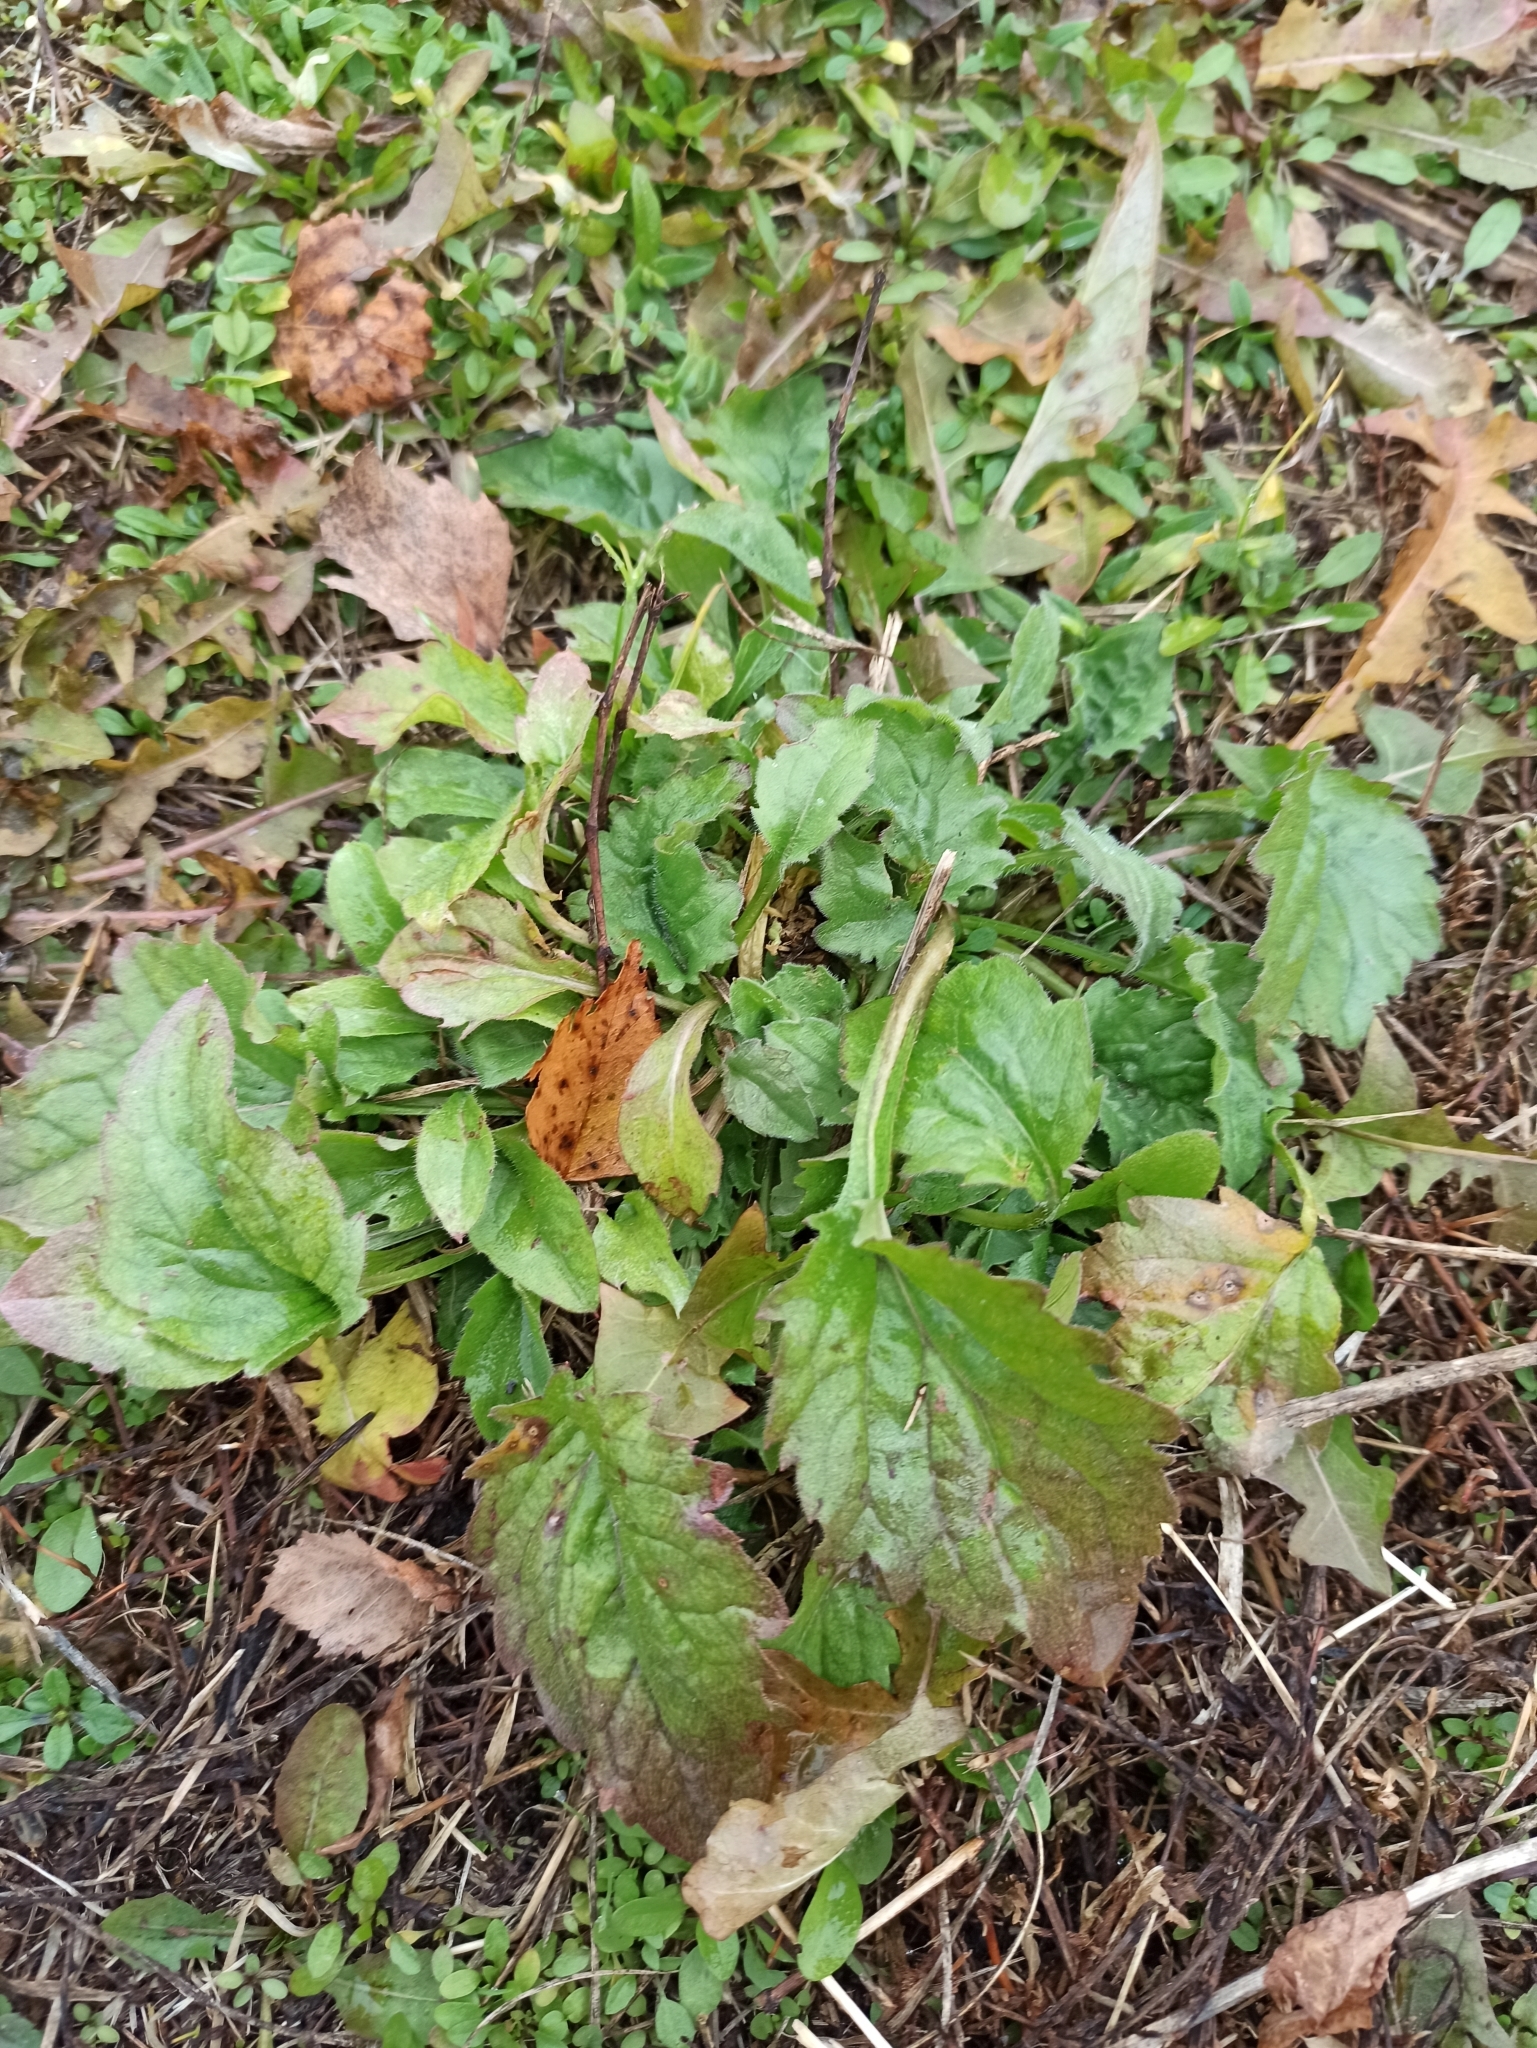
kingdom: Plantae
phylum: Tracheophyta
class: Magnoliopsida
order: Asterales
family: Asteraceae
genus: Erigeron
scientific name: Erigeron annuus
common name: Tall fleabane
